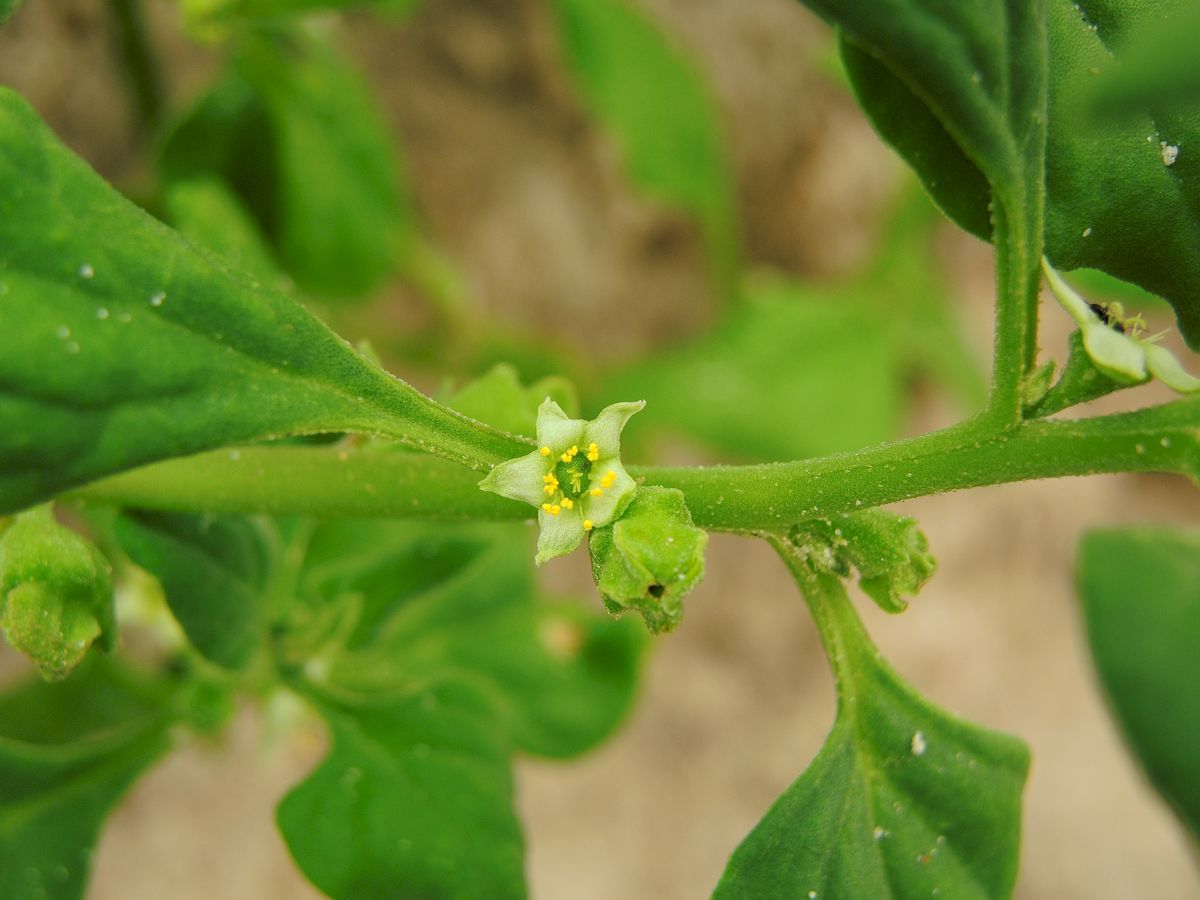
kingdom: Plantae
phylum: Tracheophyta
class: Magnoliopsida
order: Caryophyllales
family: Aizoaceae
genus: Tetragonia
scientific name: Tetragonia tetragonoides
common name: New zealand-spinach
